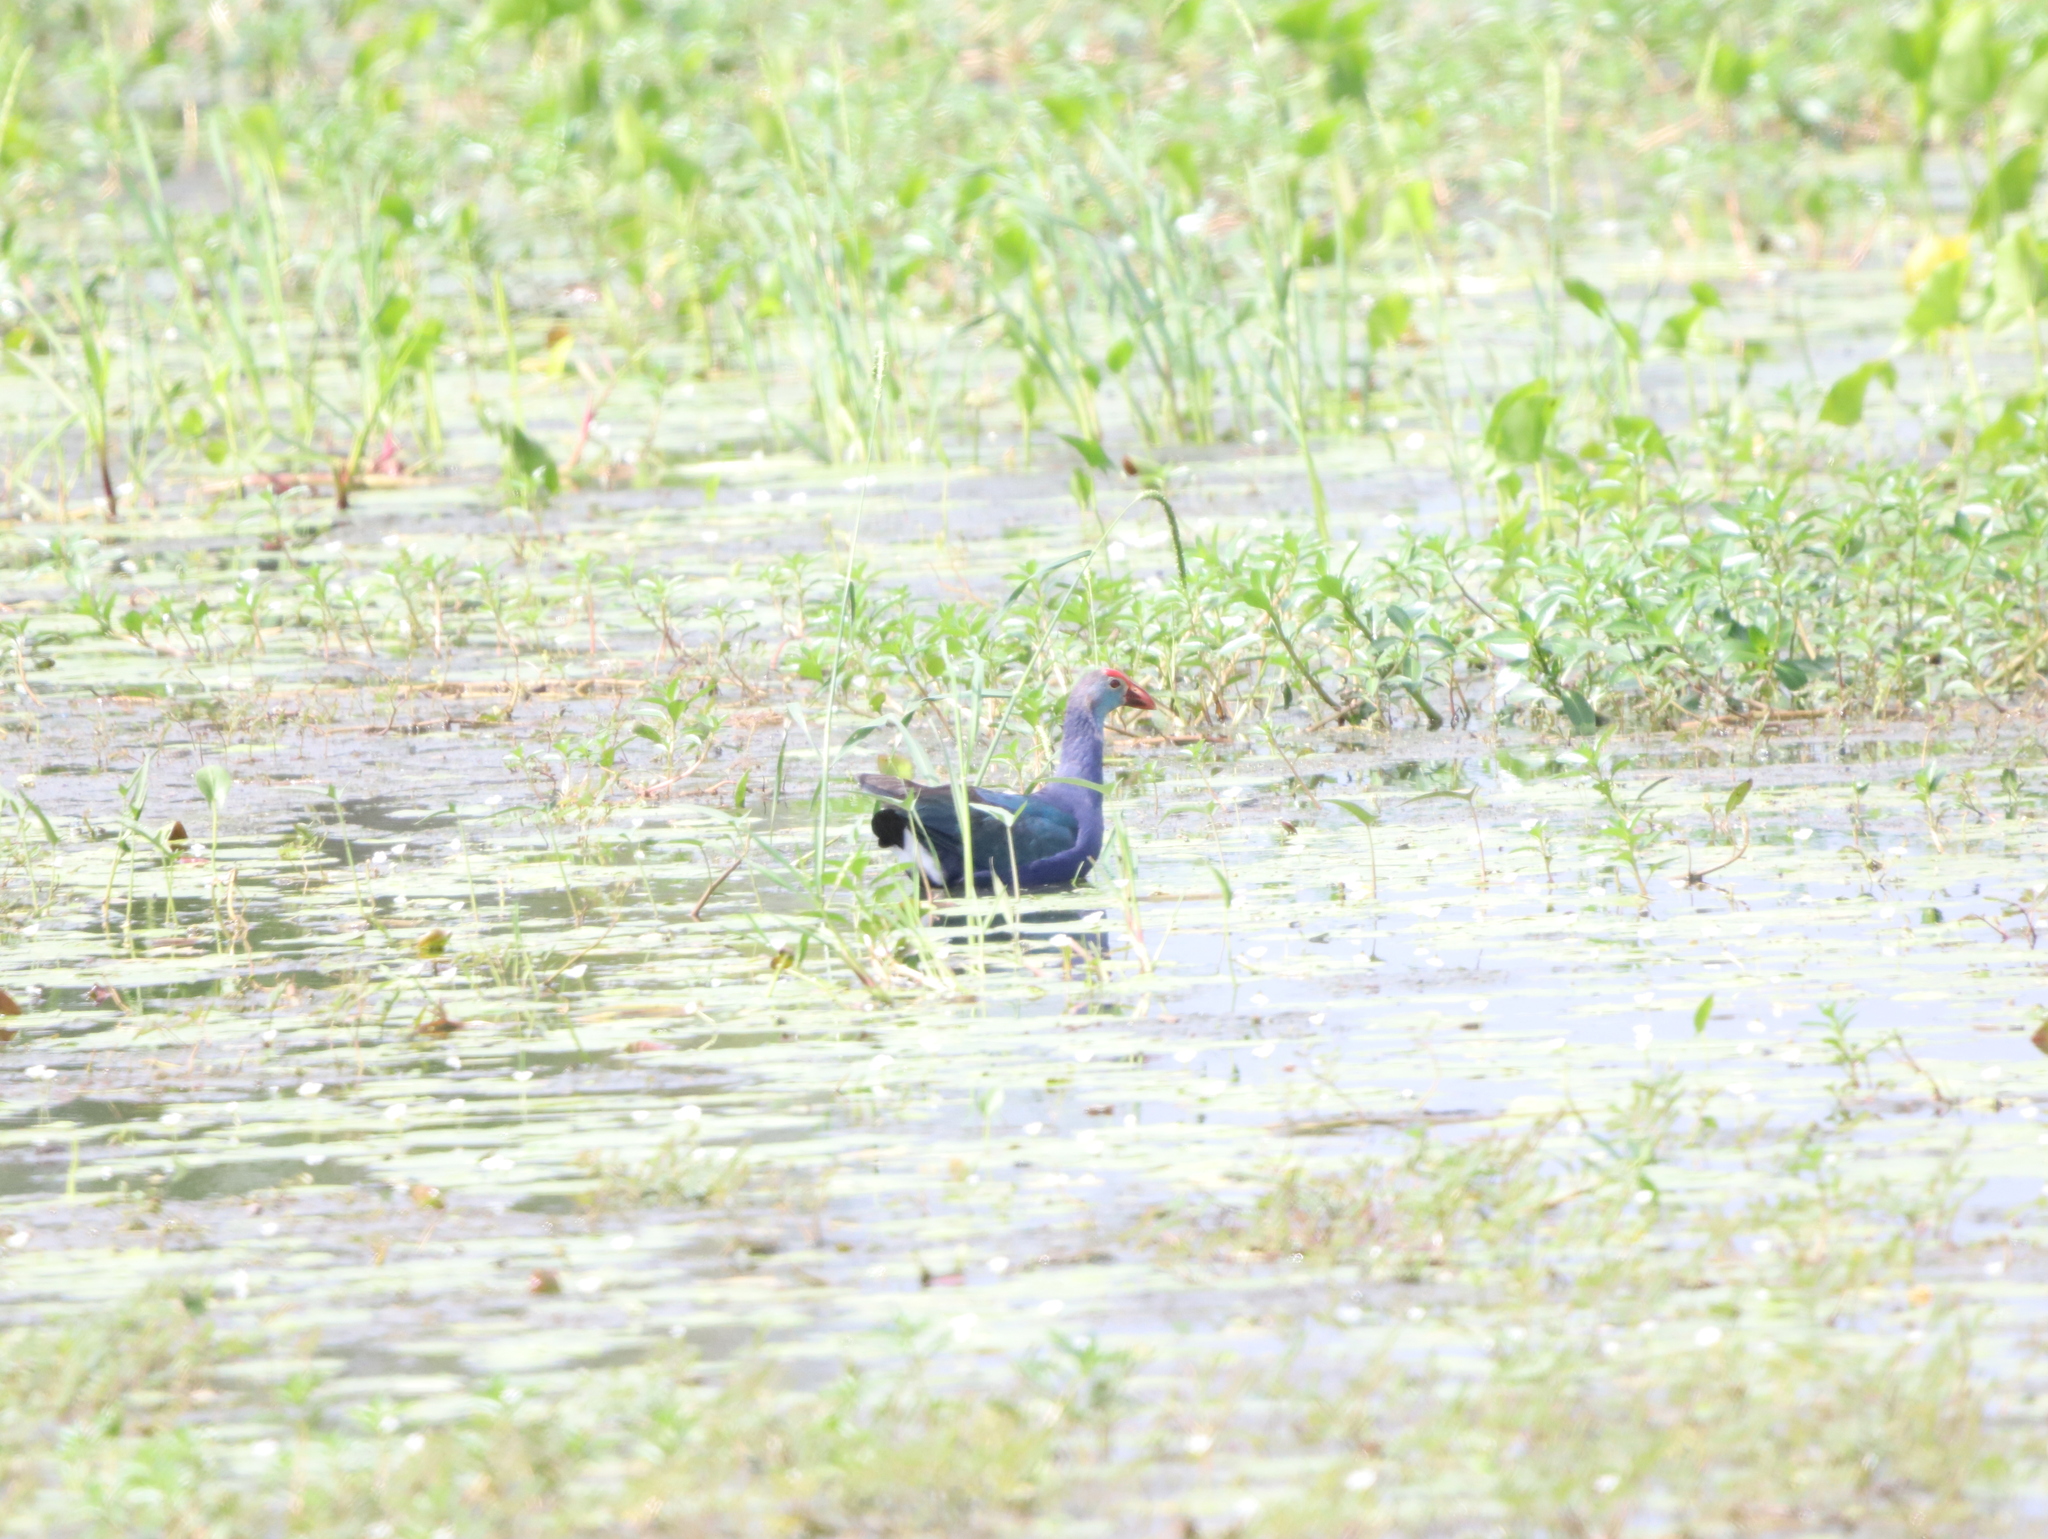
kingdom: Animalia
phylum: Chordata
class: Aves
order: Gruiformes
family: Rallidae
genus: Porphyrio
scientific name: Porphyrio porphyrio
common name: Purple swamphen
